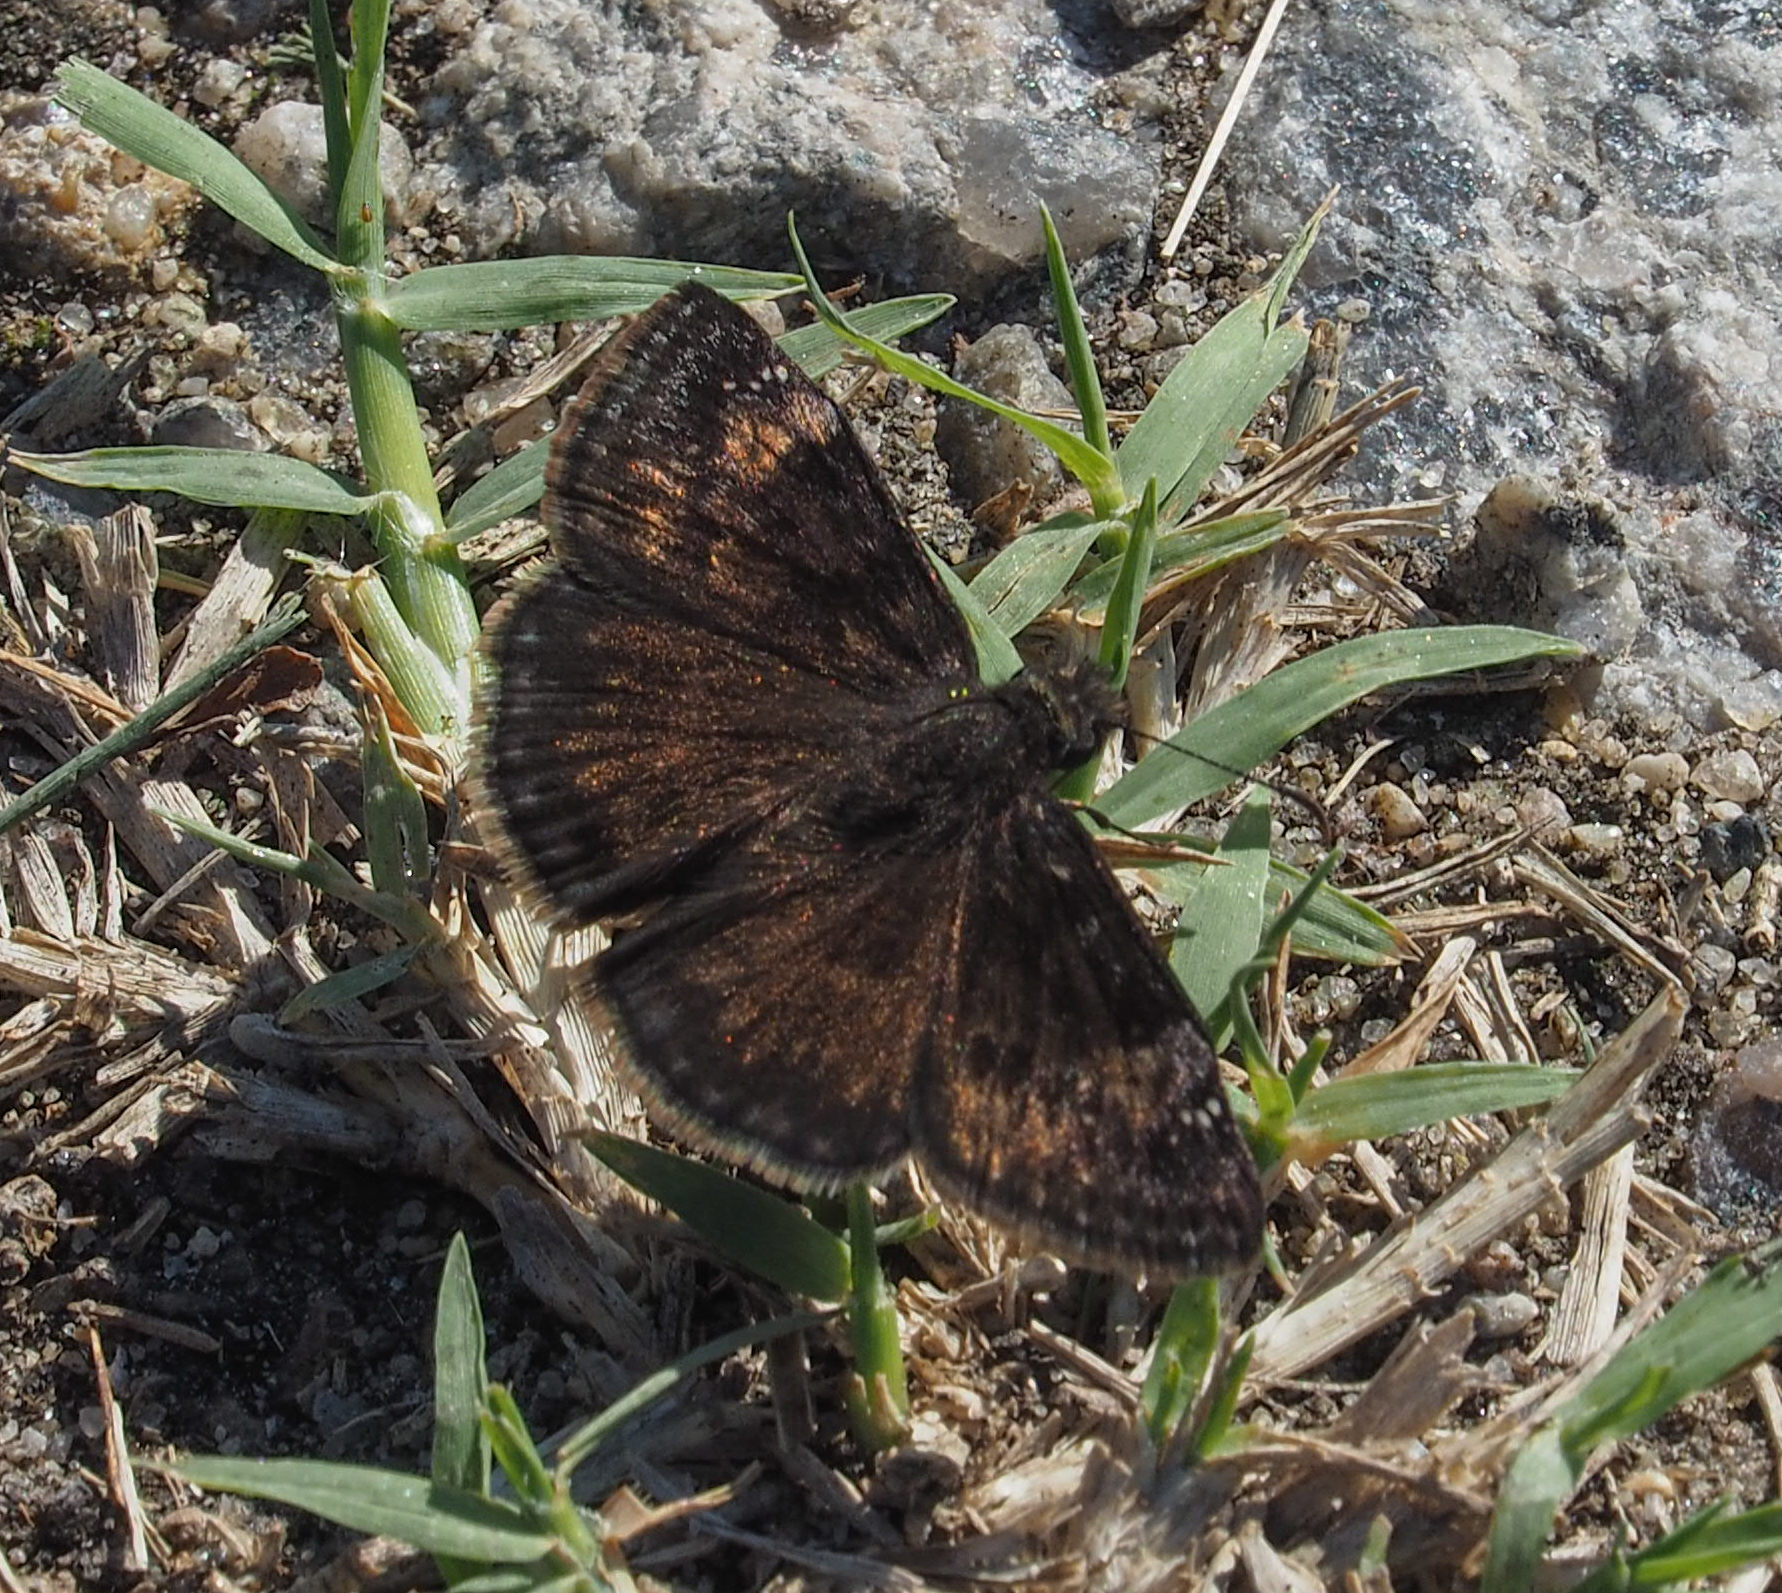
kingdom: Animalia
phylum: Arthropoda
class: Insecta
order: Lepidoptera
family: Hesperiidae
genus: Erynnis
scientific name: Erynnis baptisiae
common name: Wild indigo duskywing
